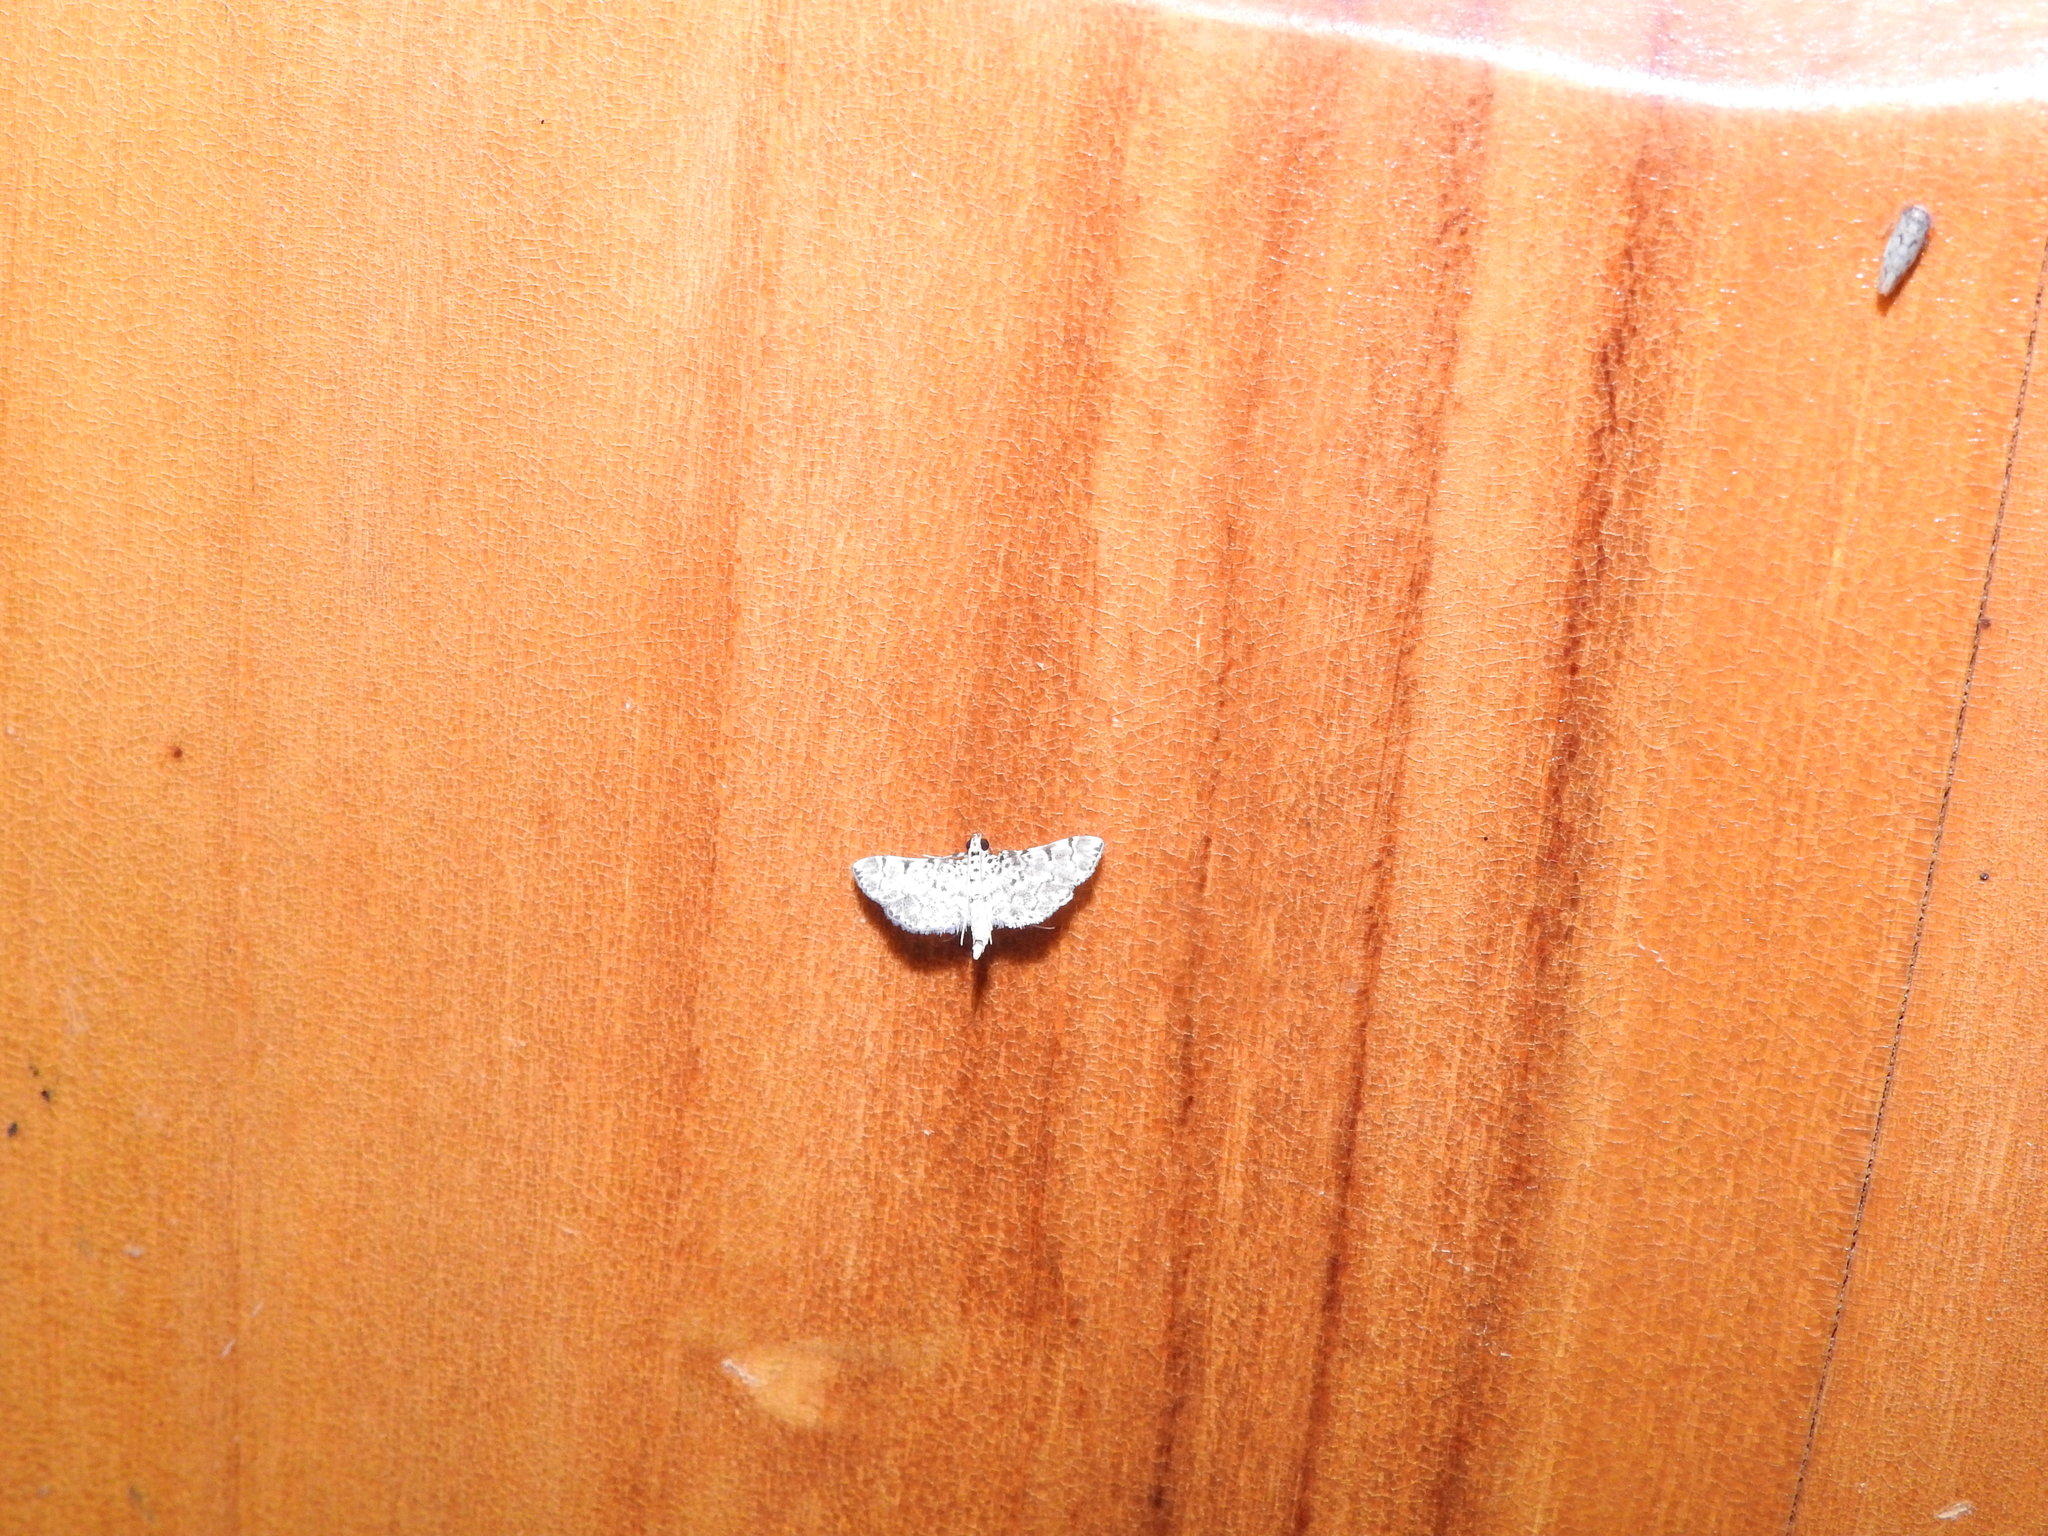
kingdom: Animalia
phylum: Arthropoda
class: Insecta
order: Lepidoptera
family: Crambidae
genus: Metoeca
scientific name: Metoeca foedalis
